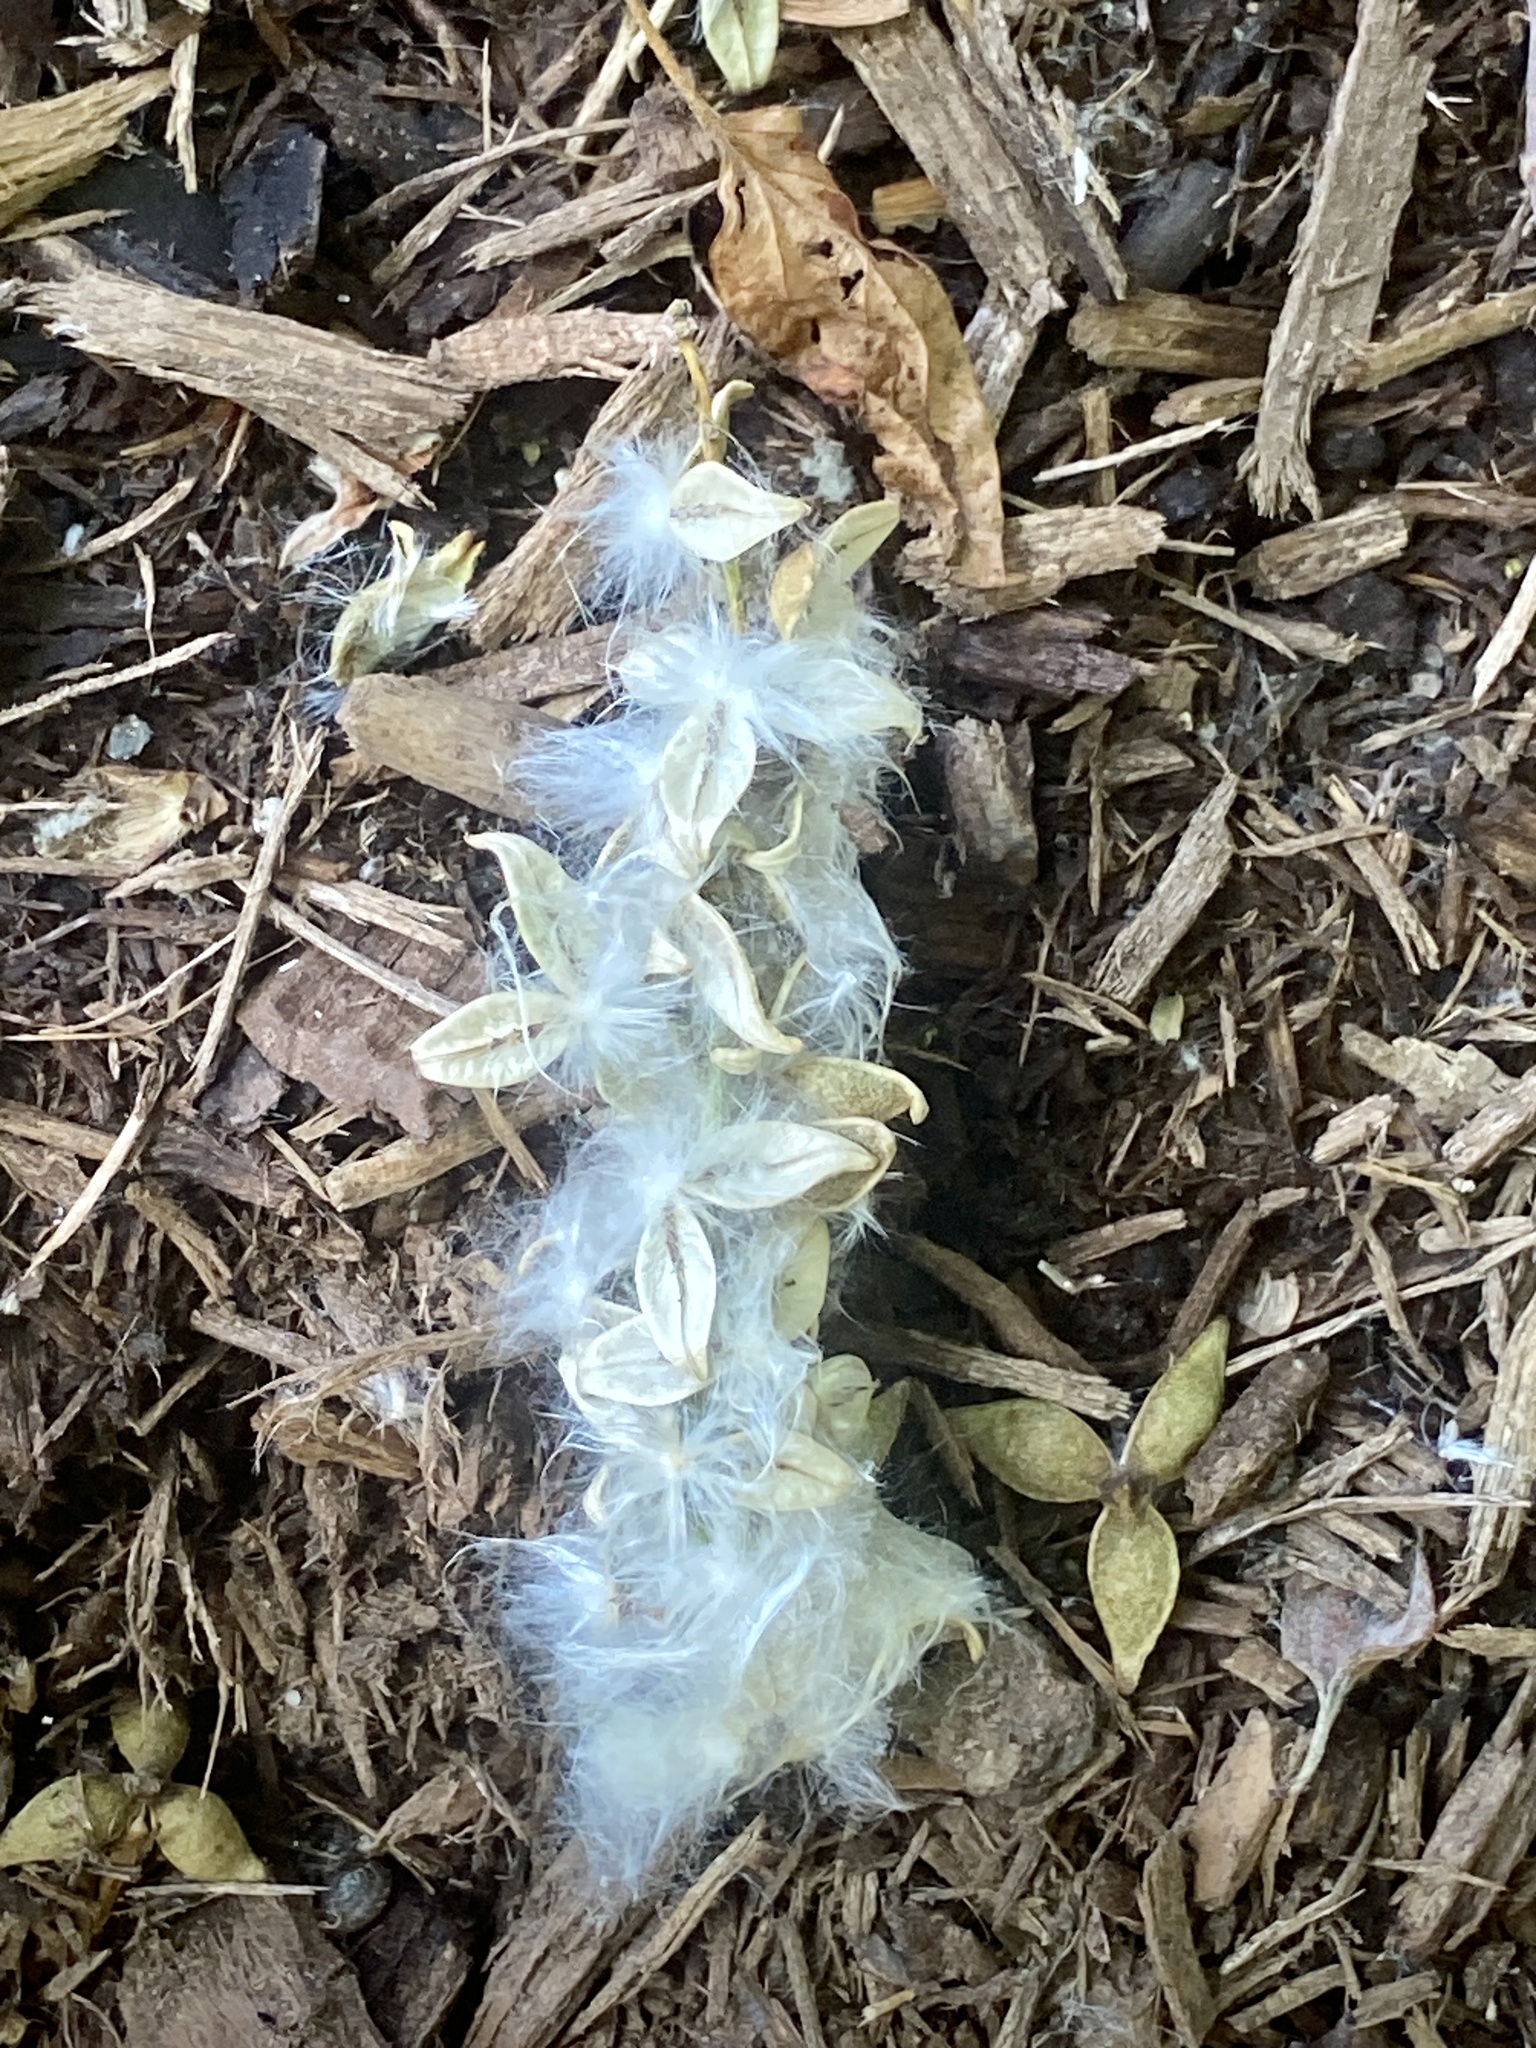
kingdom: Plantae
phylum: Tracheophyta
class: Magnoliopsida
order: Malpighiales
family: Salicaceae
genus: Populus
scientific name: Populus deltoides
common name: Eastern cottonwood
